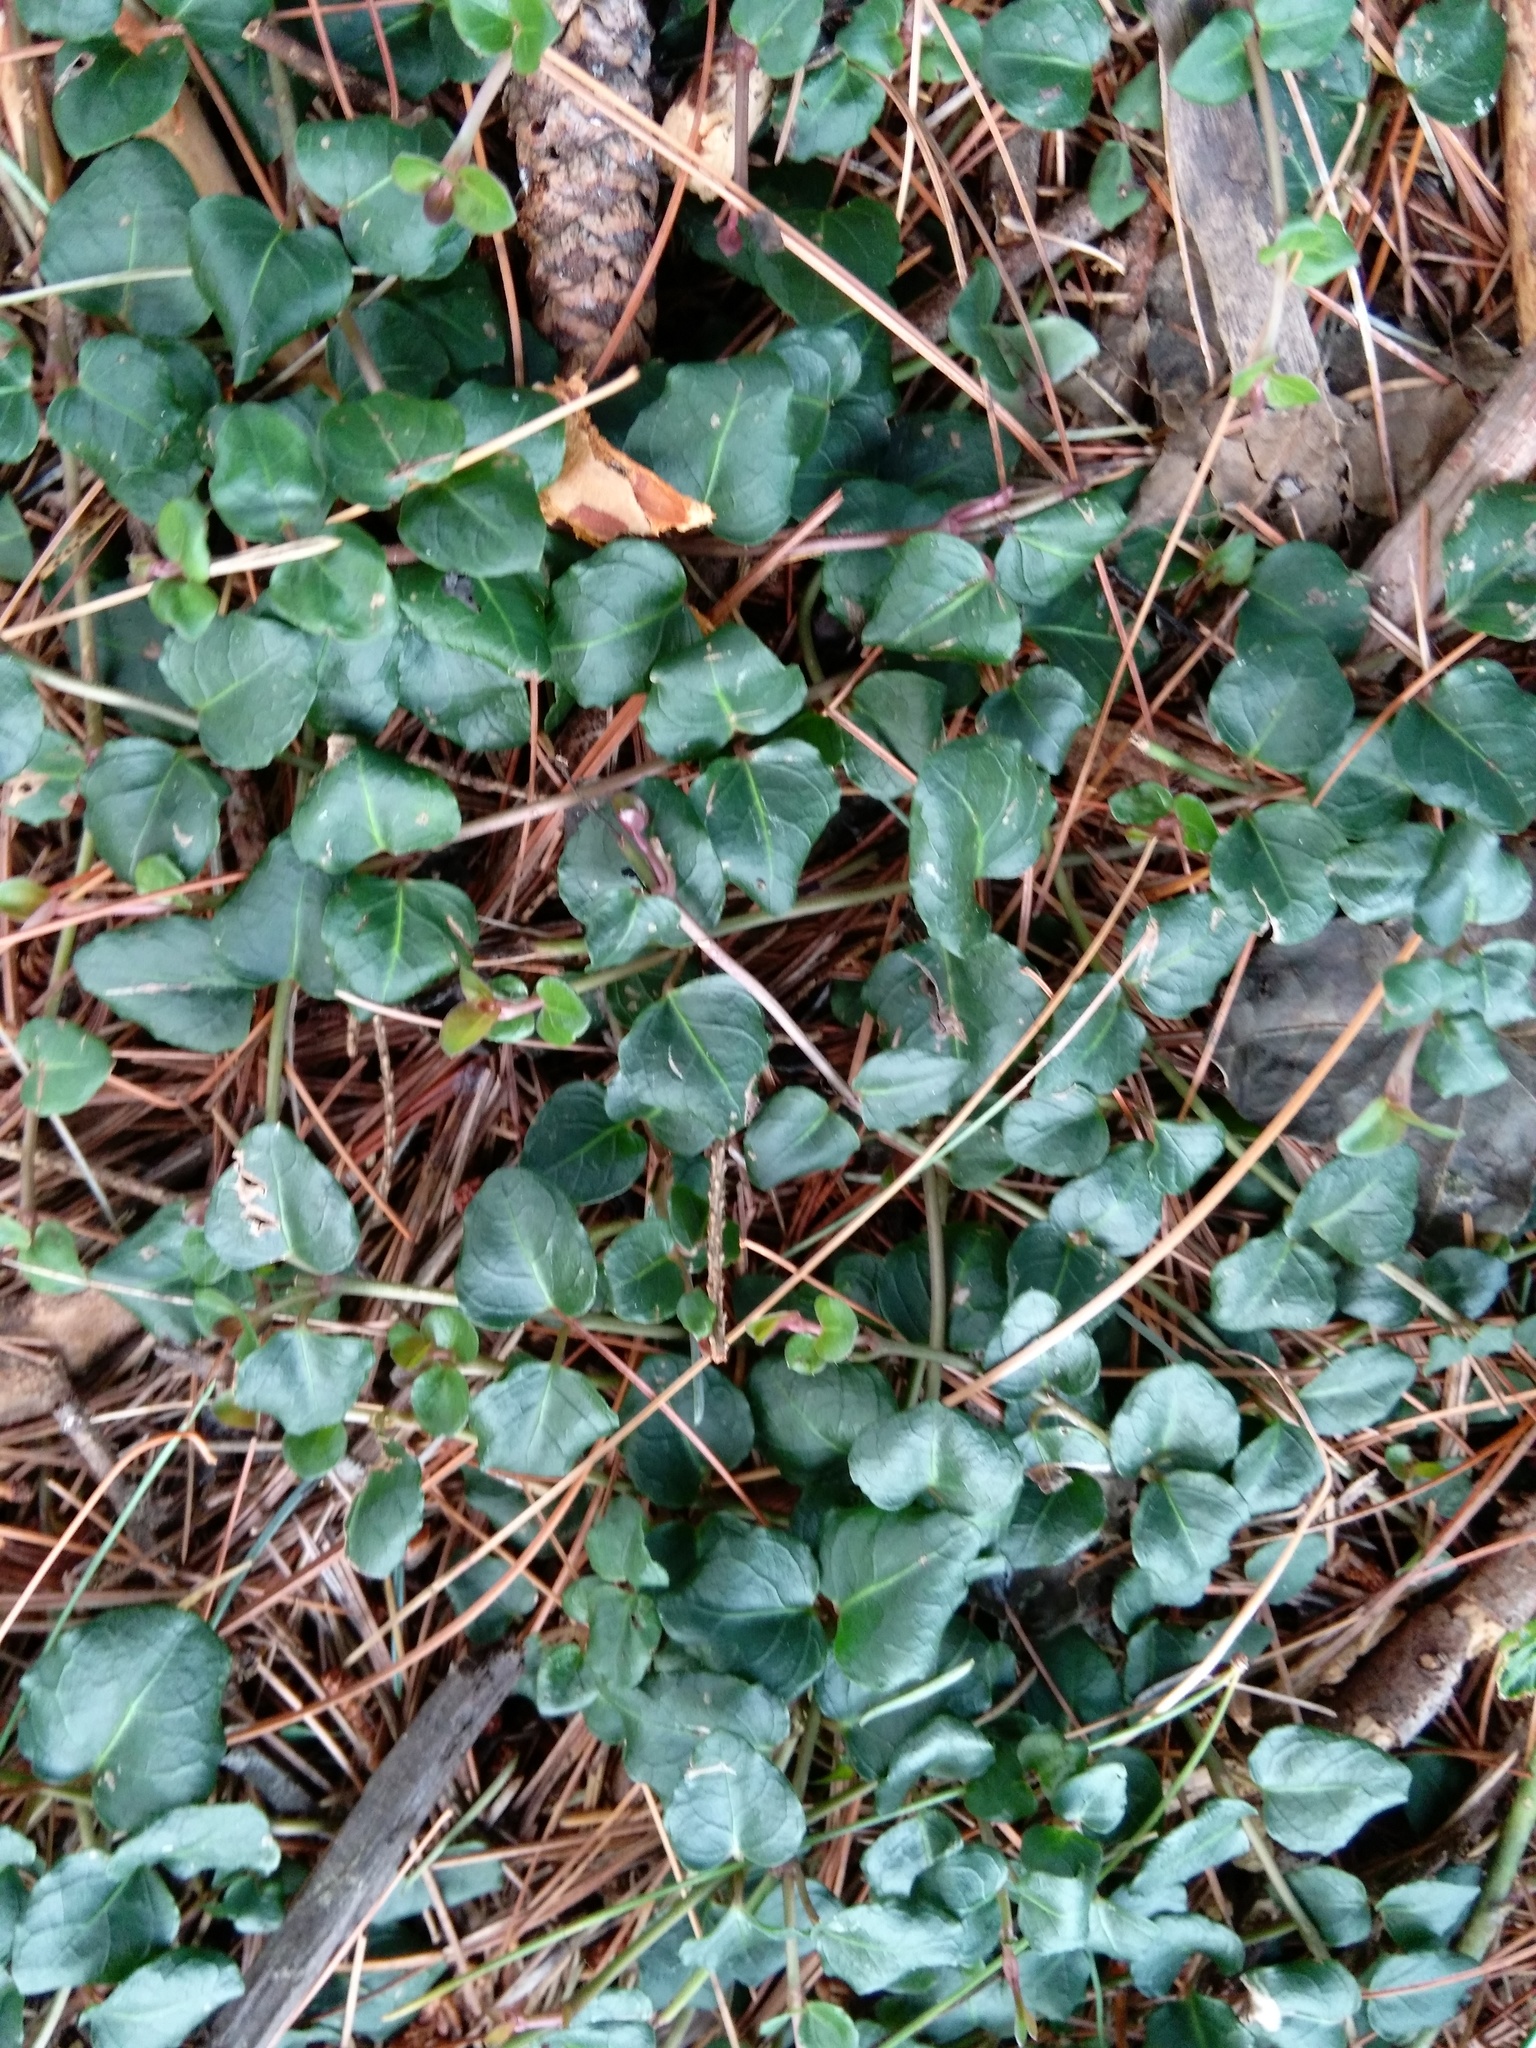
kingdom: Plantae
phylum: Tracheophyta
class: Magnoliopsida
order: Gentianales
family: Rubiaceae
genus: Mitchella
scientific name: Mitchella repens
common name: Partridge-berry
